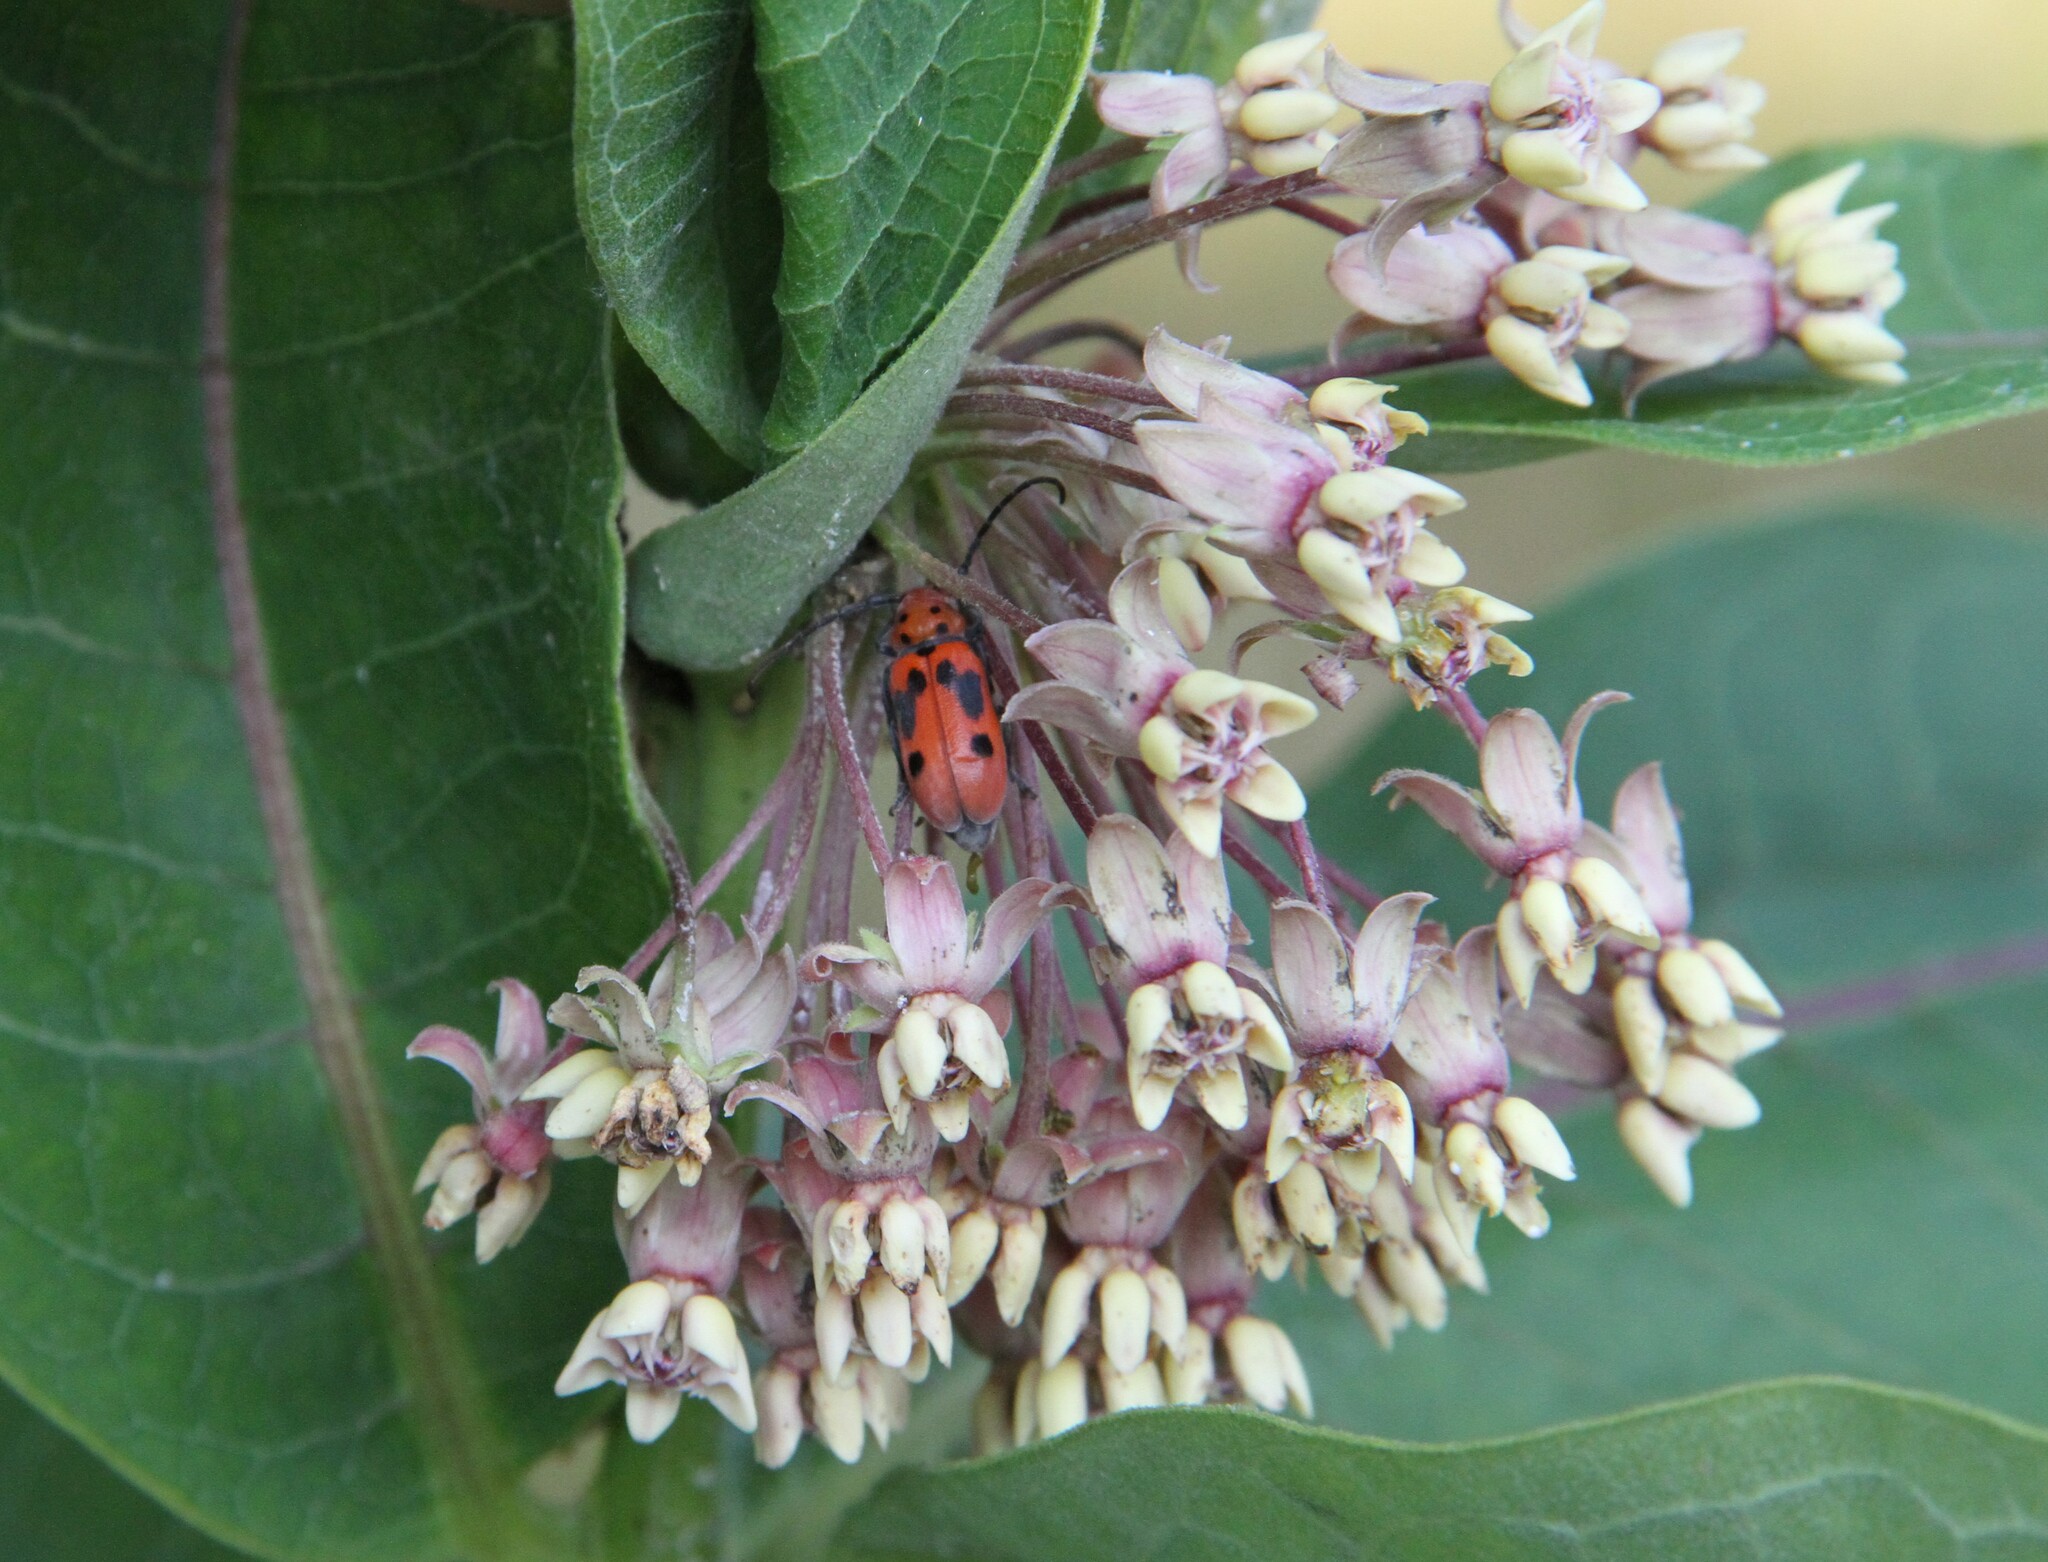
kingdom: Animalia
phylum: Arthropoda
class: Insecta
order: Coleoptera
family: Cerambycidae
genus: Tetraopes
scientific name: Tetraopes tetrophthalmus
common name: Red milkweed beetle
